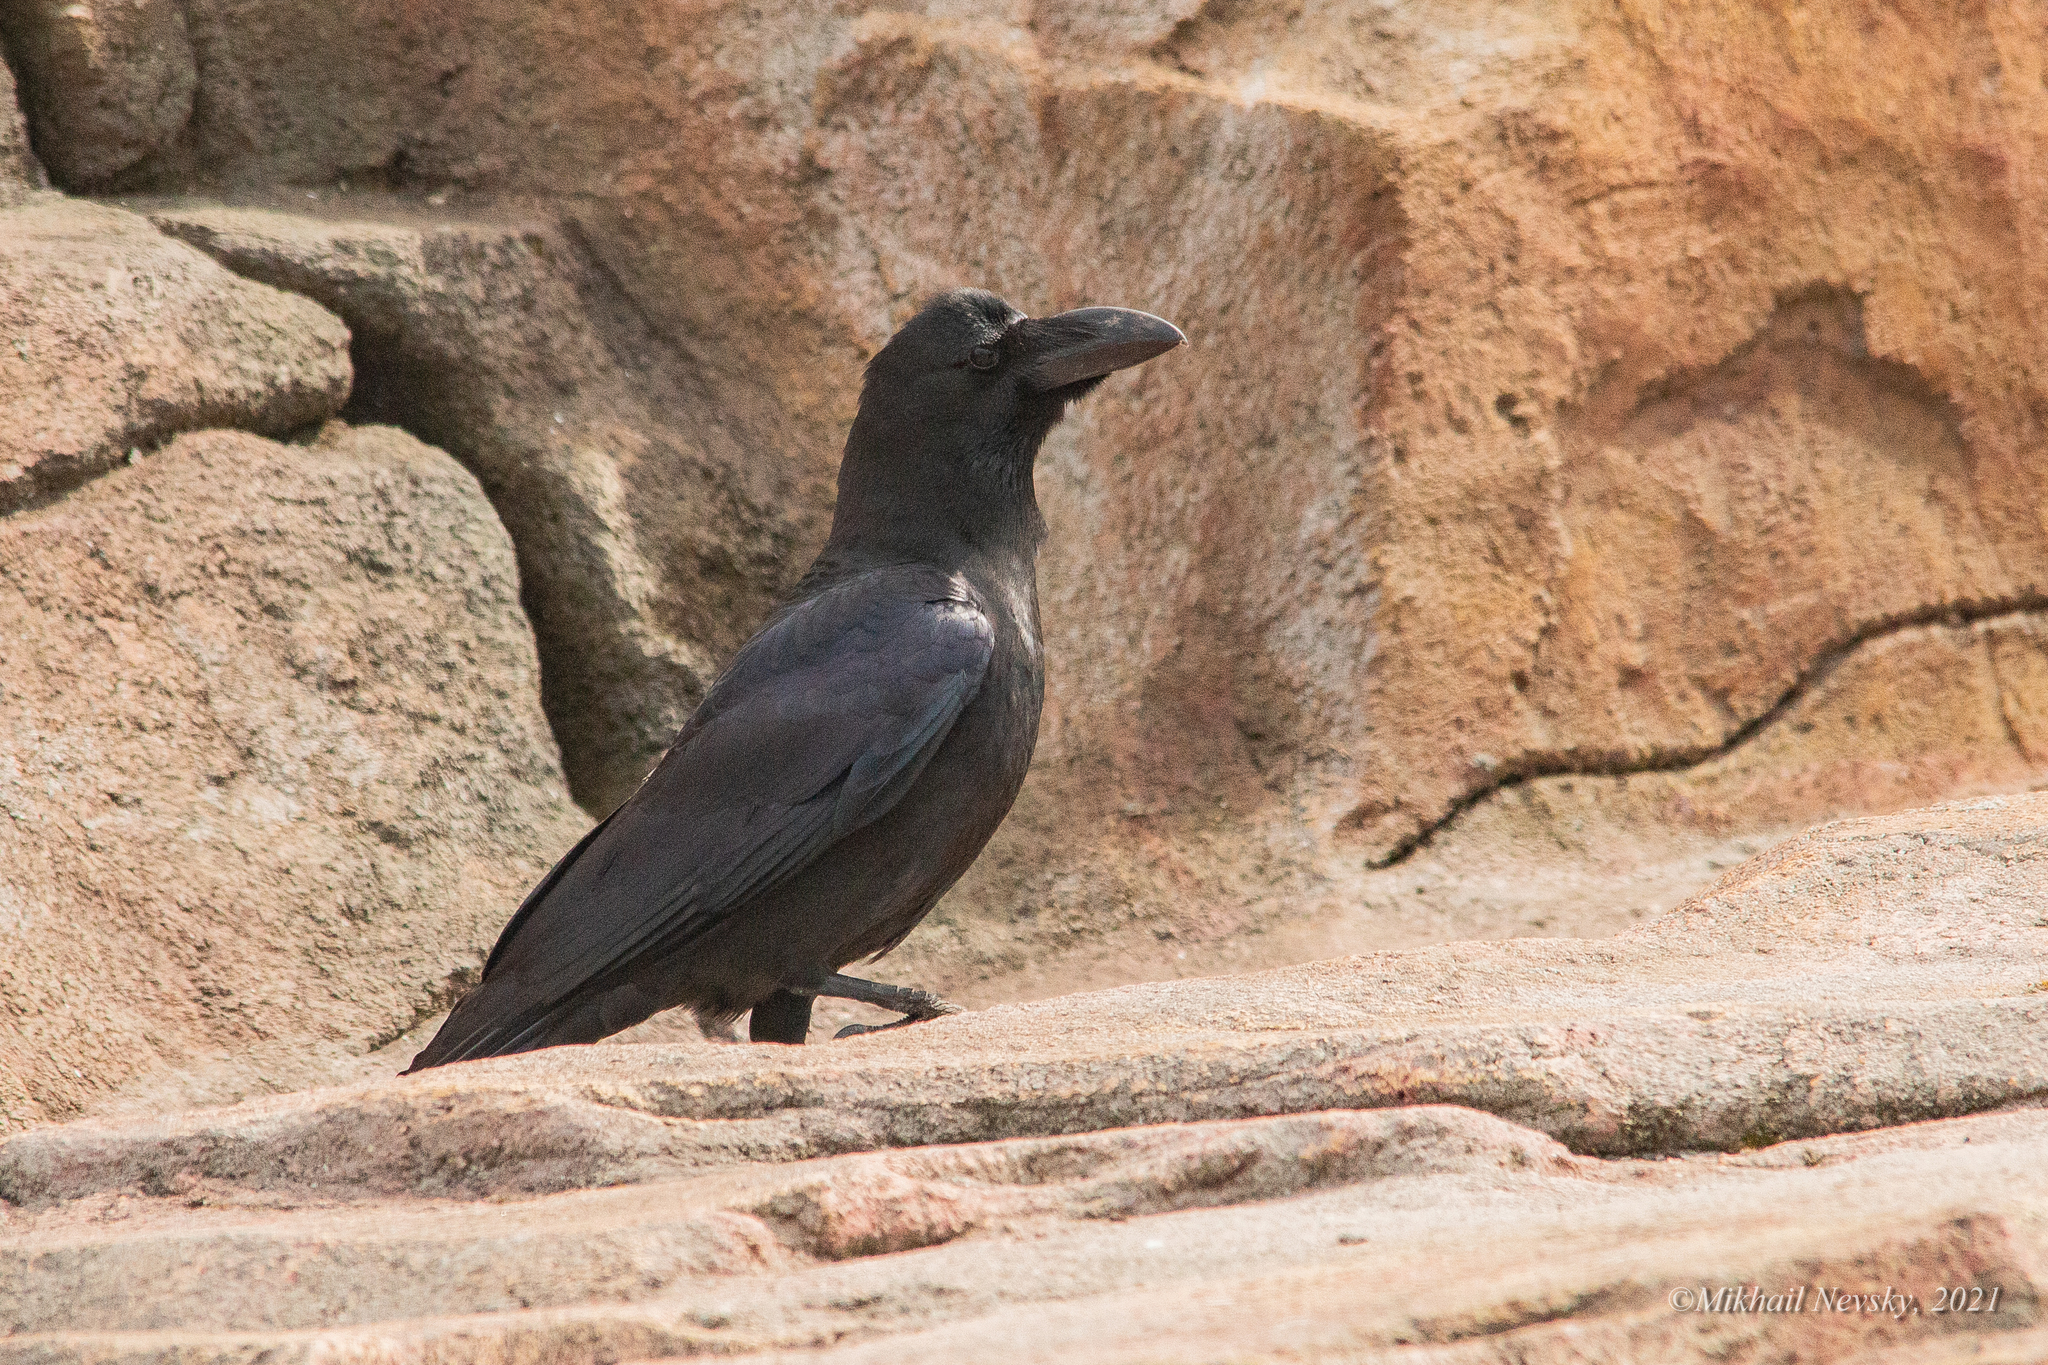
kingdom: Animalia
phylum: Chordata
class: Aves
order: Passeriformes
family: Corvidae
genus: Corvus
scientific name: Corvus macrorhynchos
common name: Large-billed crow
